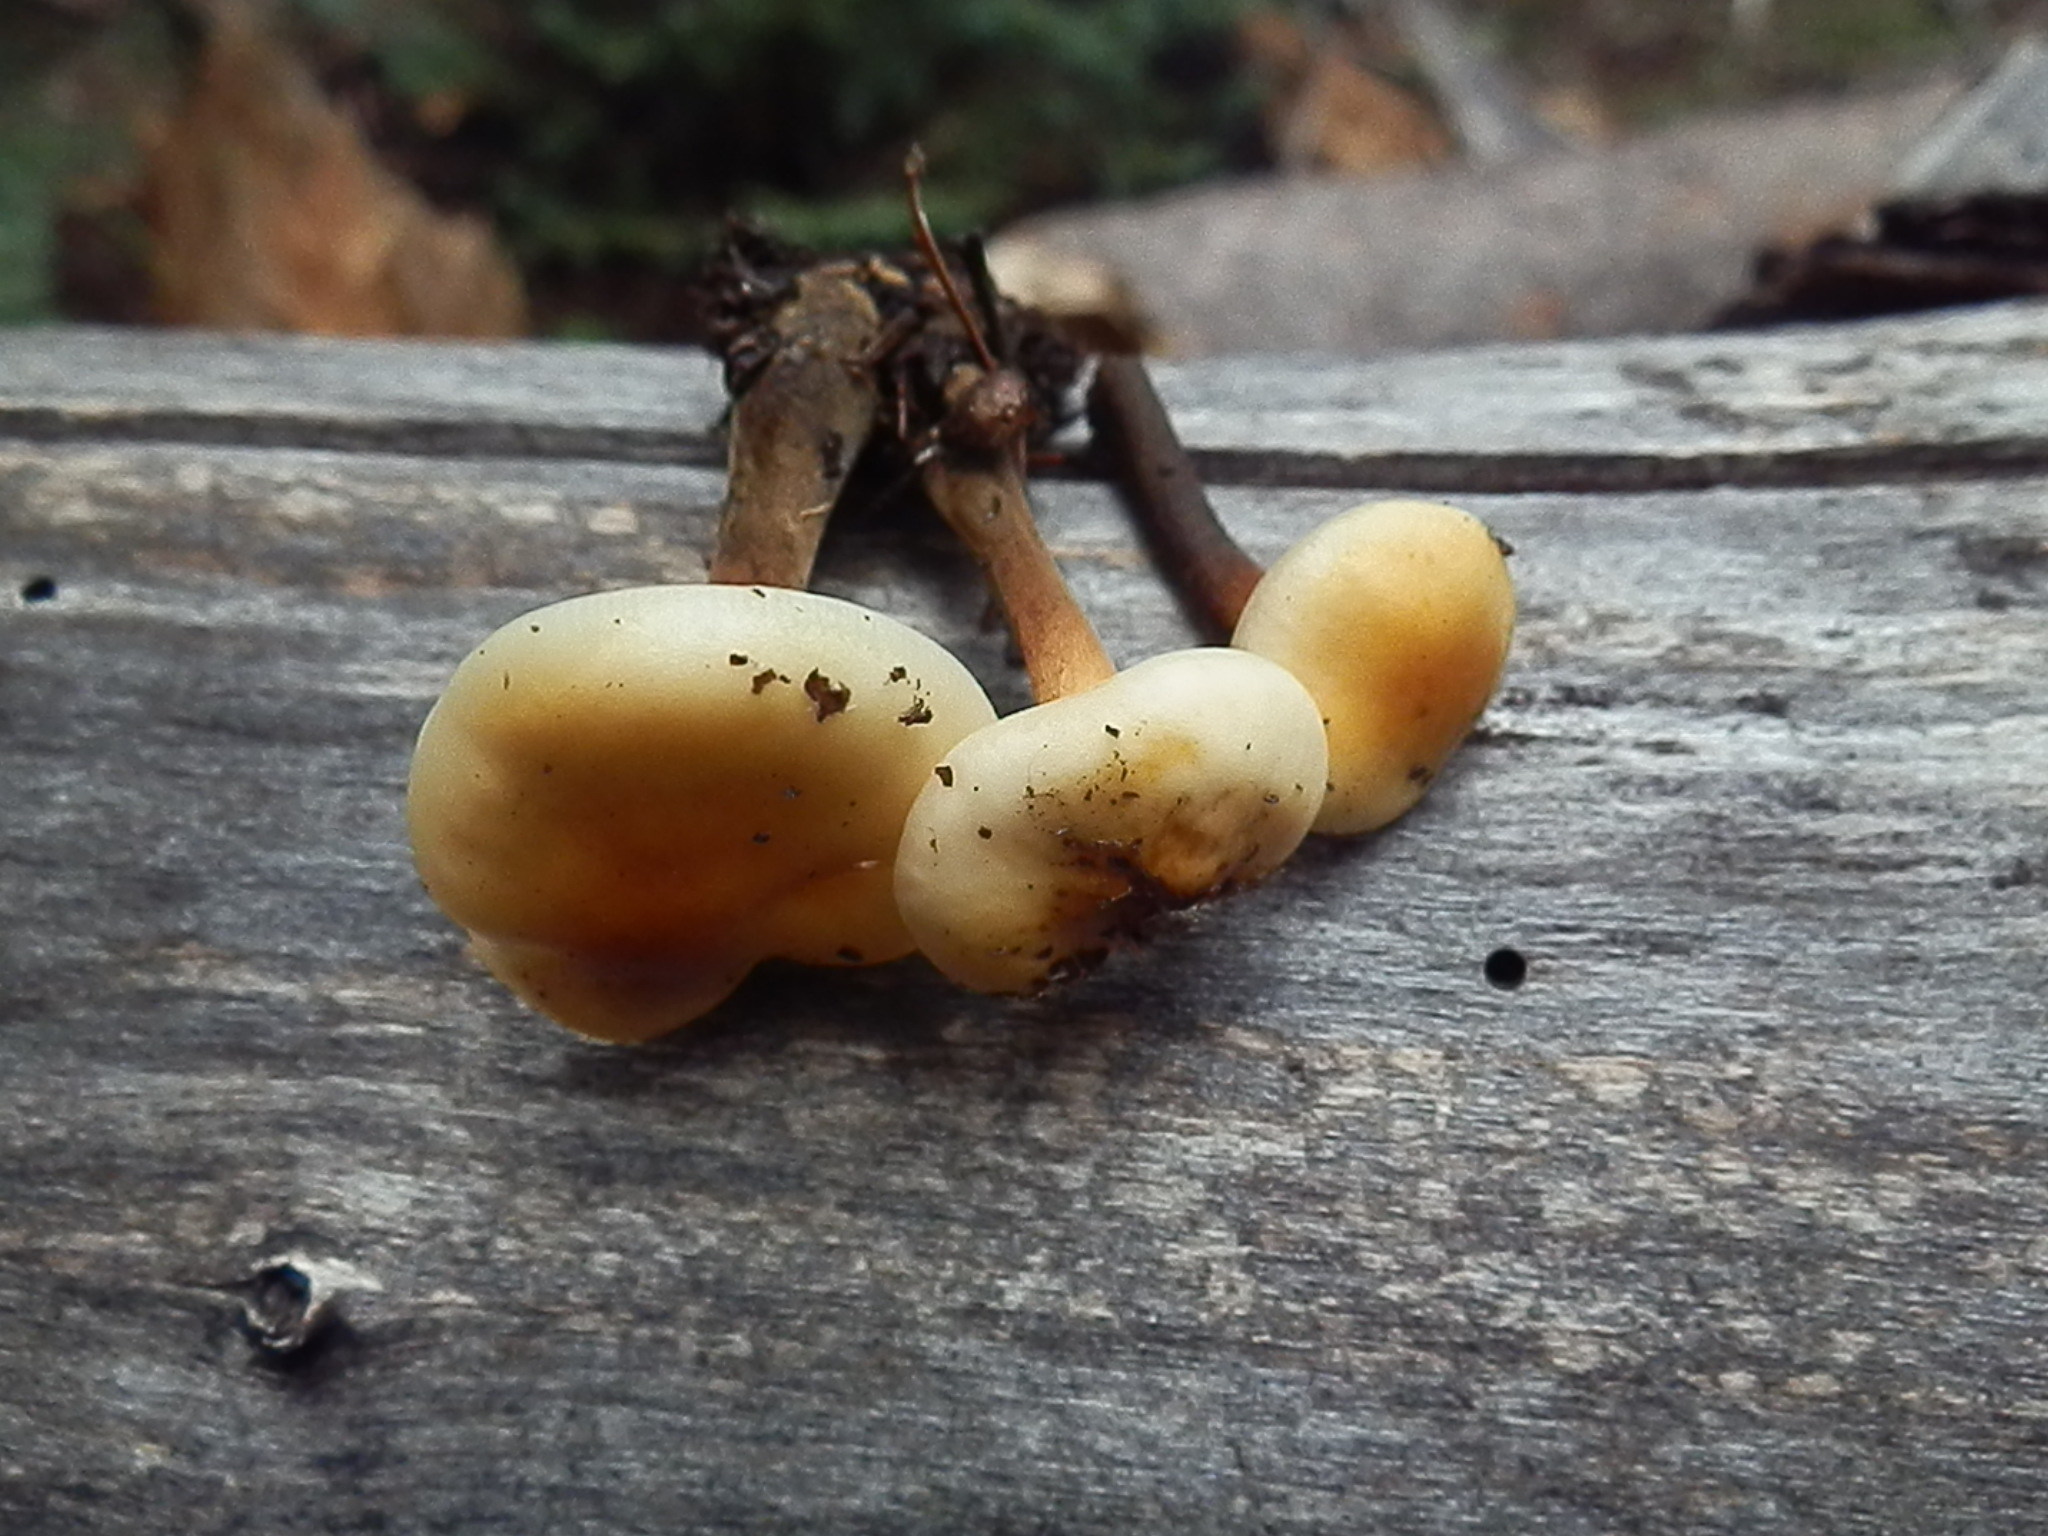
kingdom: Fungi
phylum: Basidiomycota
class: Agaricomycetes
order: Agaricales
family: Physalacriaceae
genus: Flammulina
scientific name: Flammulina populicola
